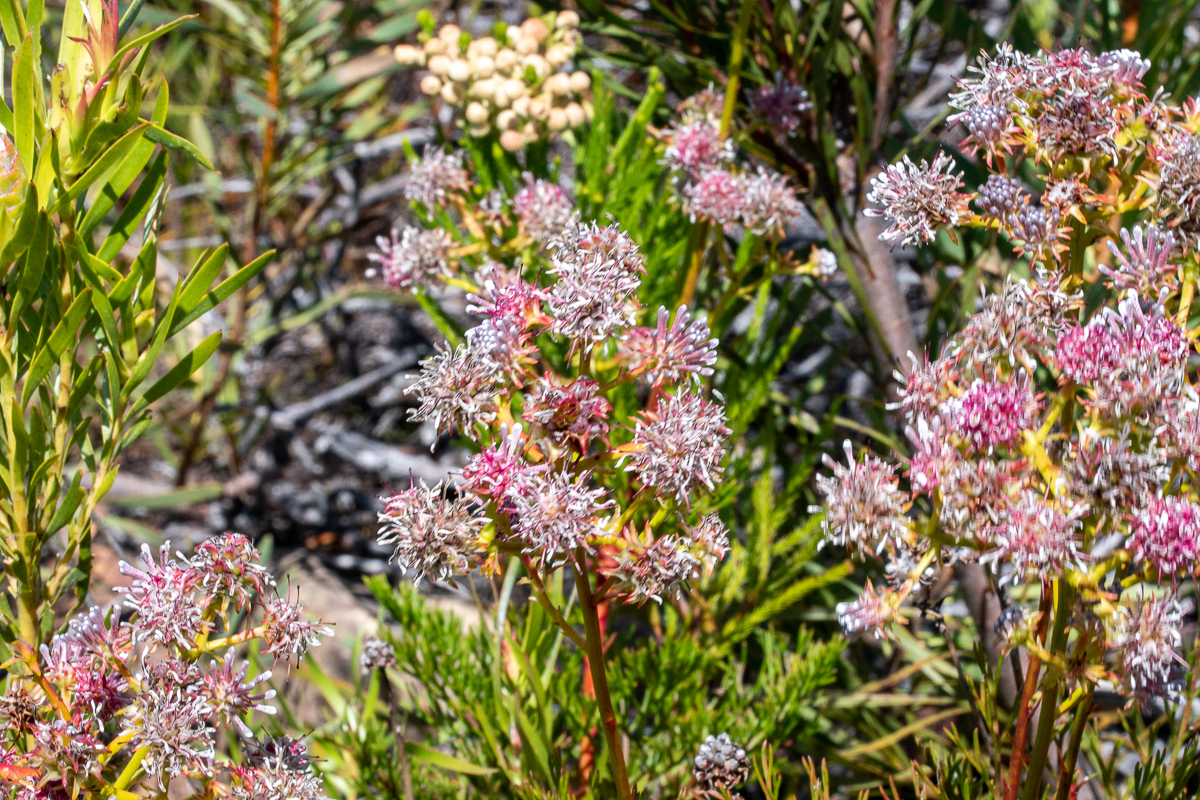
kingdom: Plantae
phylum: Tracheophyta
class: Magnoliopsida
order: Proteales
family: Proteaceae
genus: Serruria
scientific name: Serruria elongata
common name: Long-stalk spiderhead
